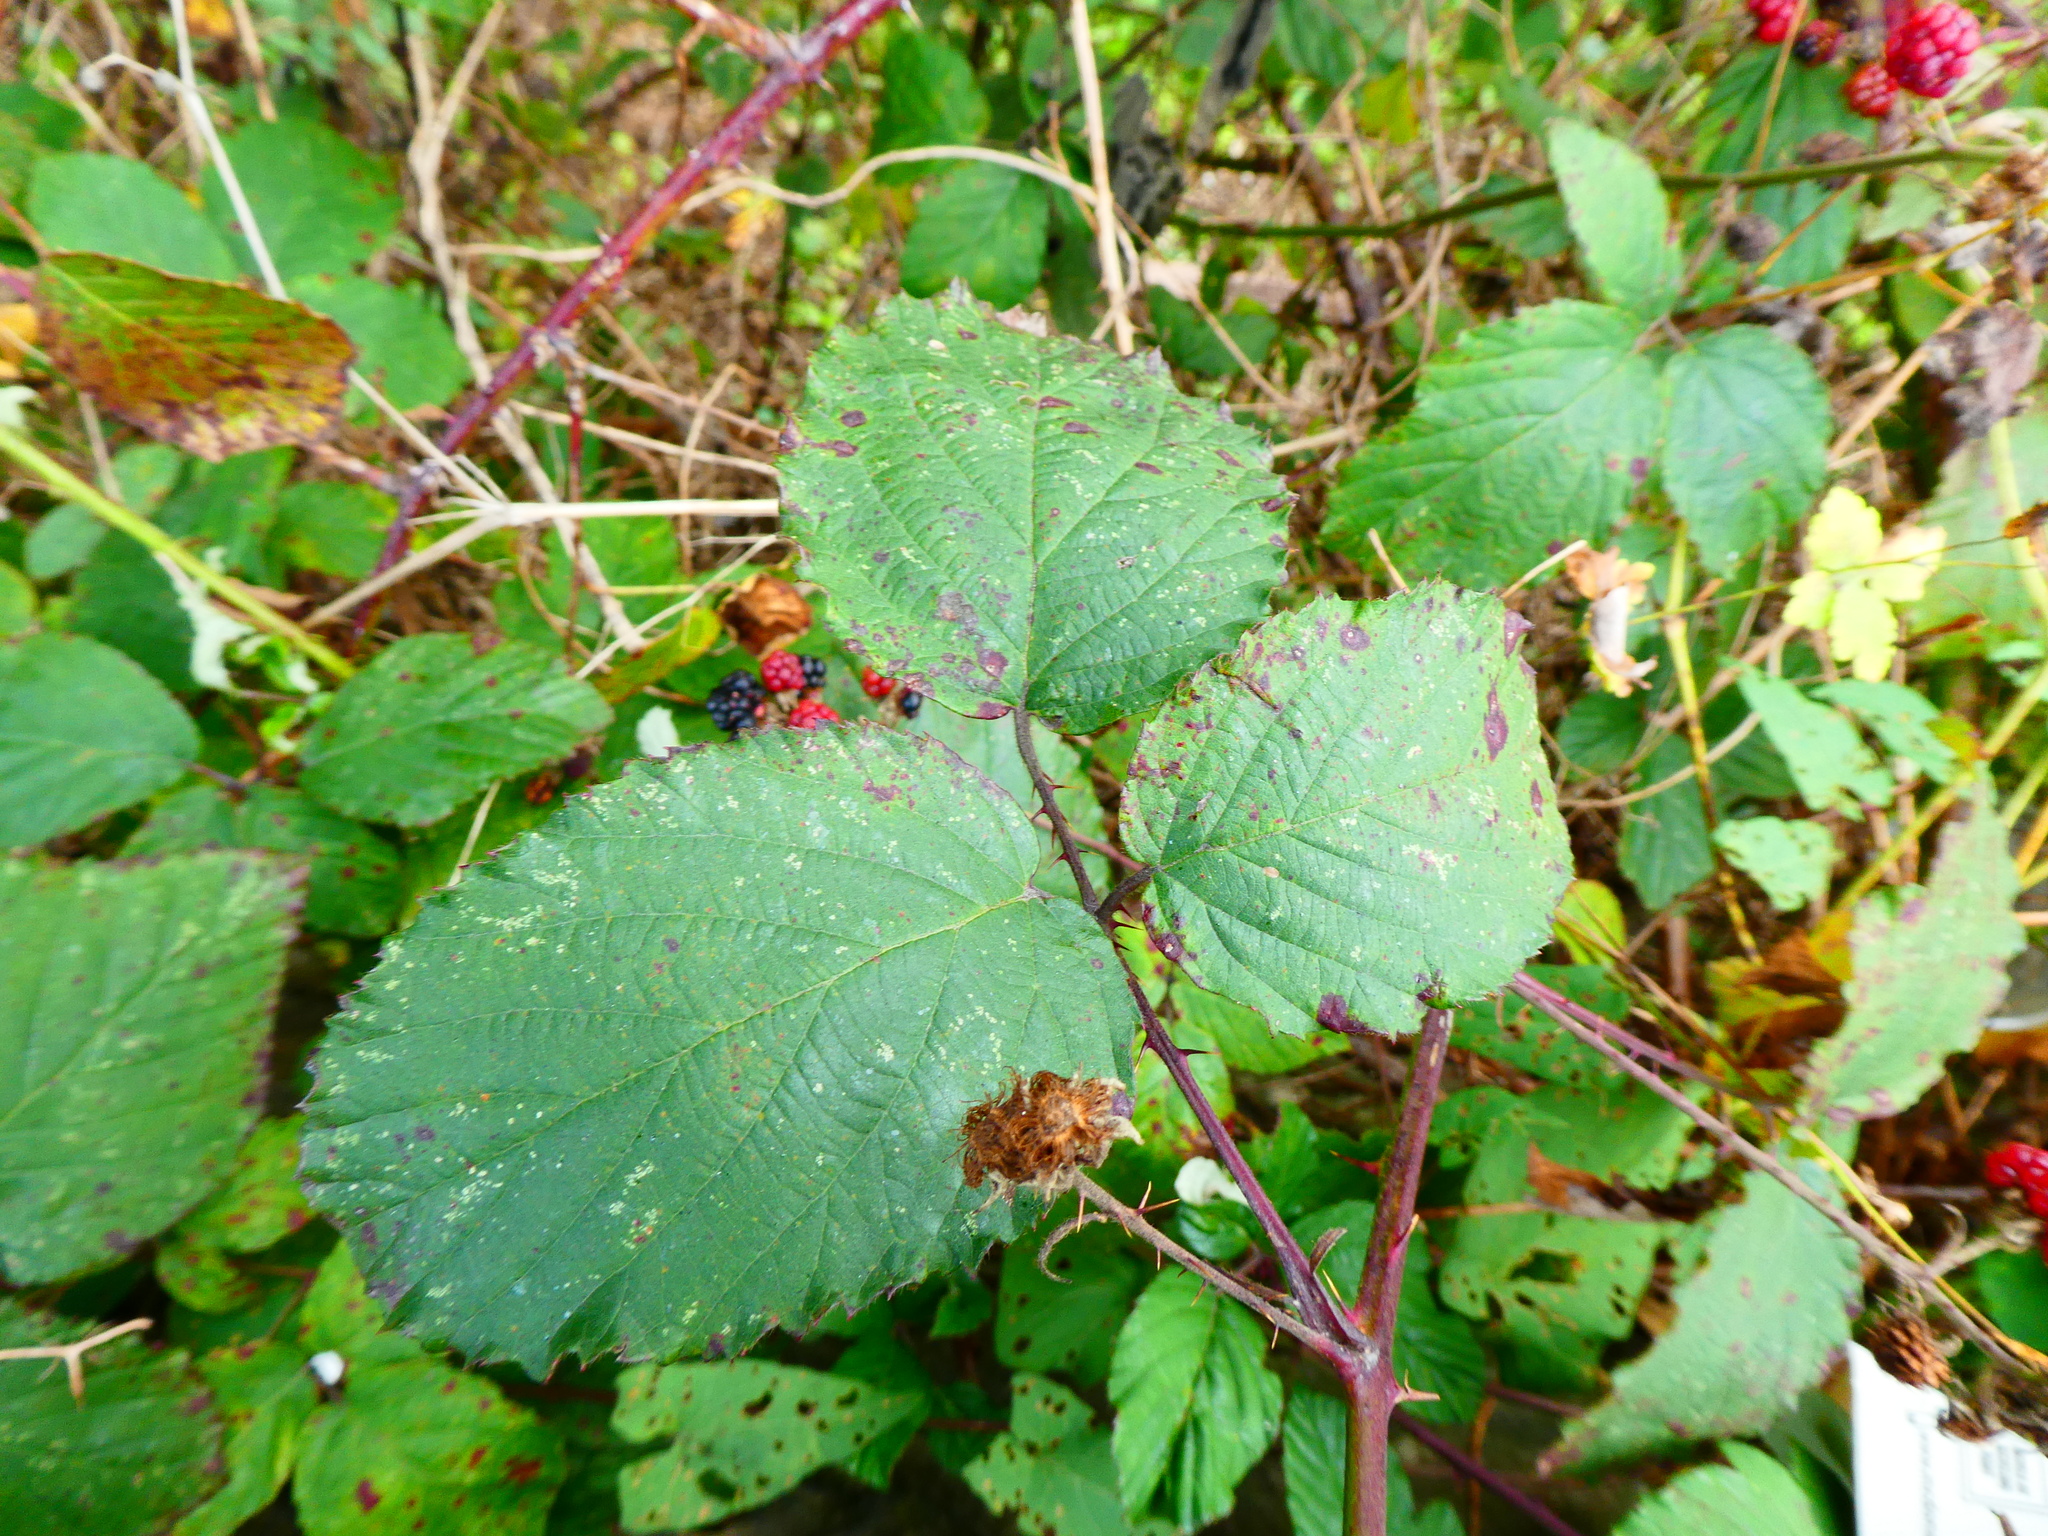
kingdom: Plantae
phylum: Tracheophyta
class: Magnoliopsida
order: Rosales
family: Rosaceae
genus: Rubus
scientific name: Rubus
